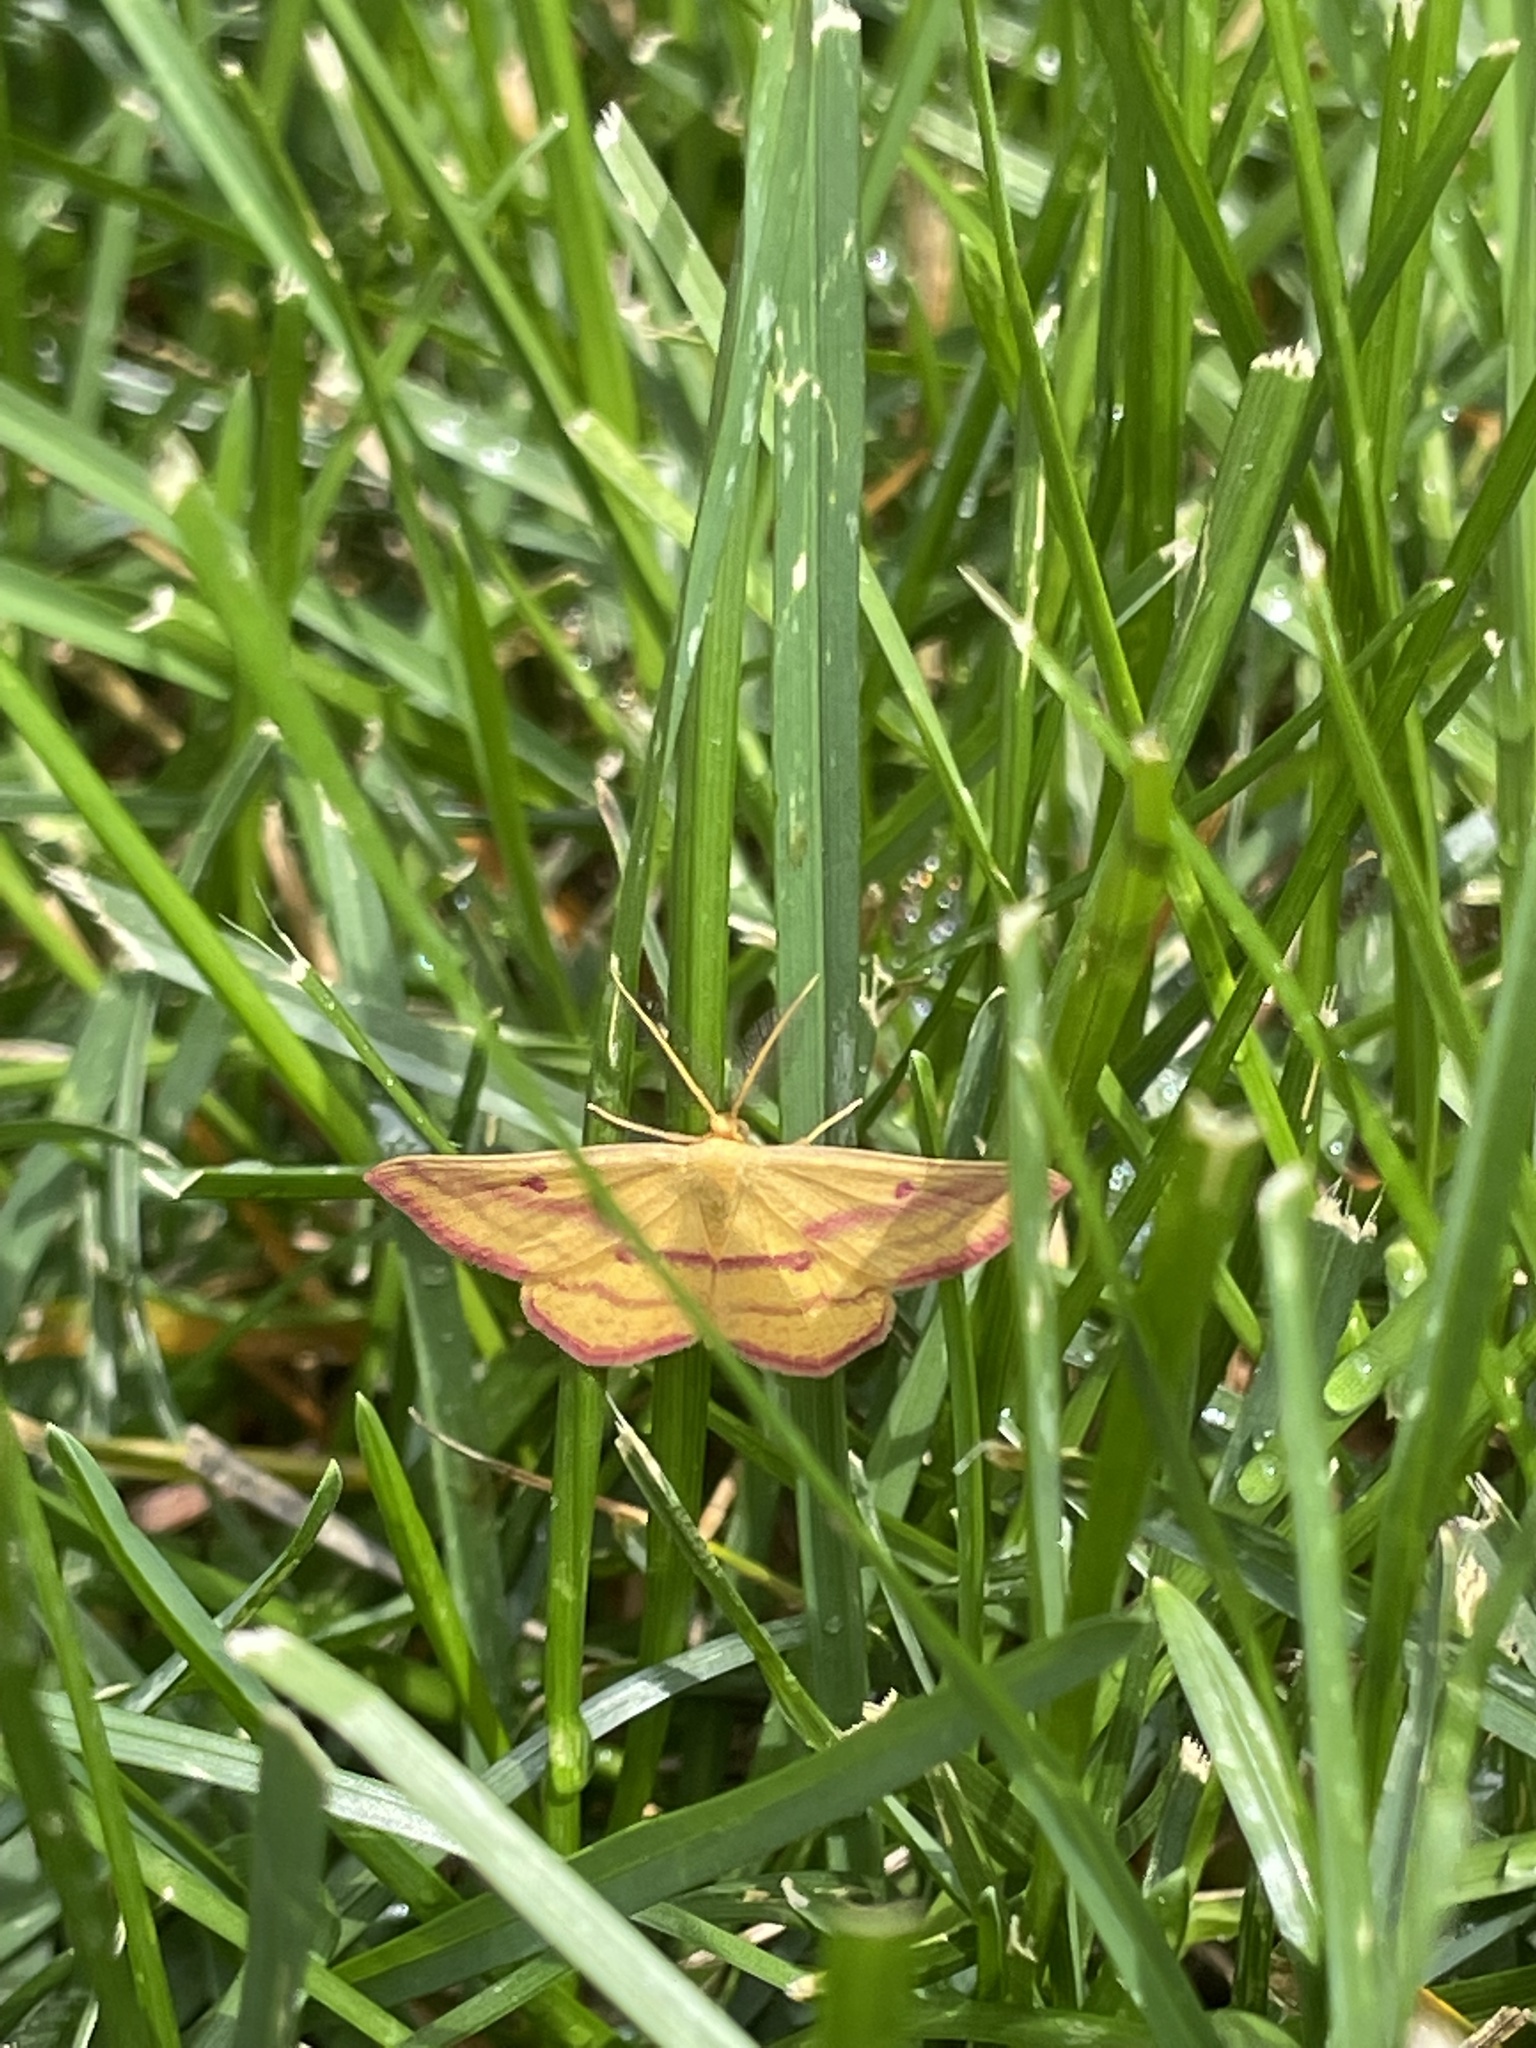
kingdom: Animalia
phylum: Arthropoda
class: Insecta
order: Lepidoptera
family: Geometridae
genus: Haematopis
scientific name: Haematopis grataria
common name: Chickweed geometer
